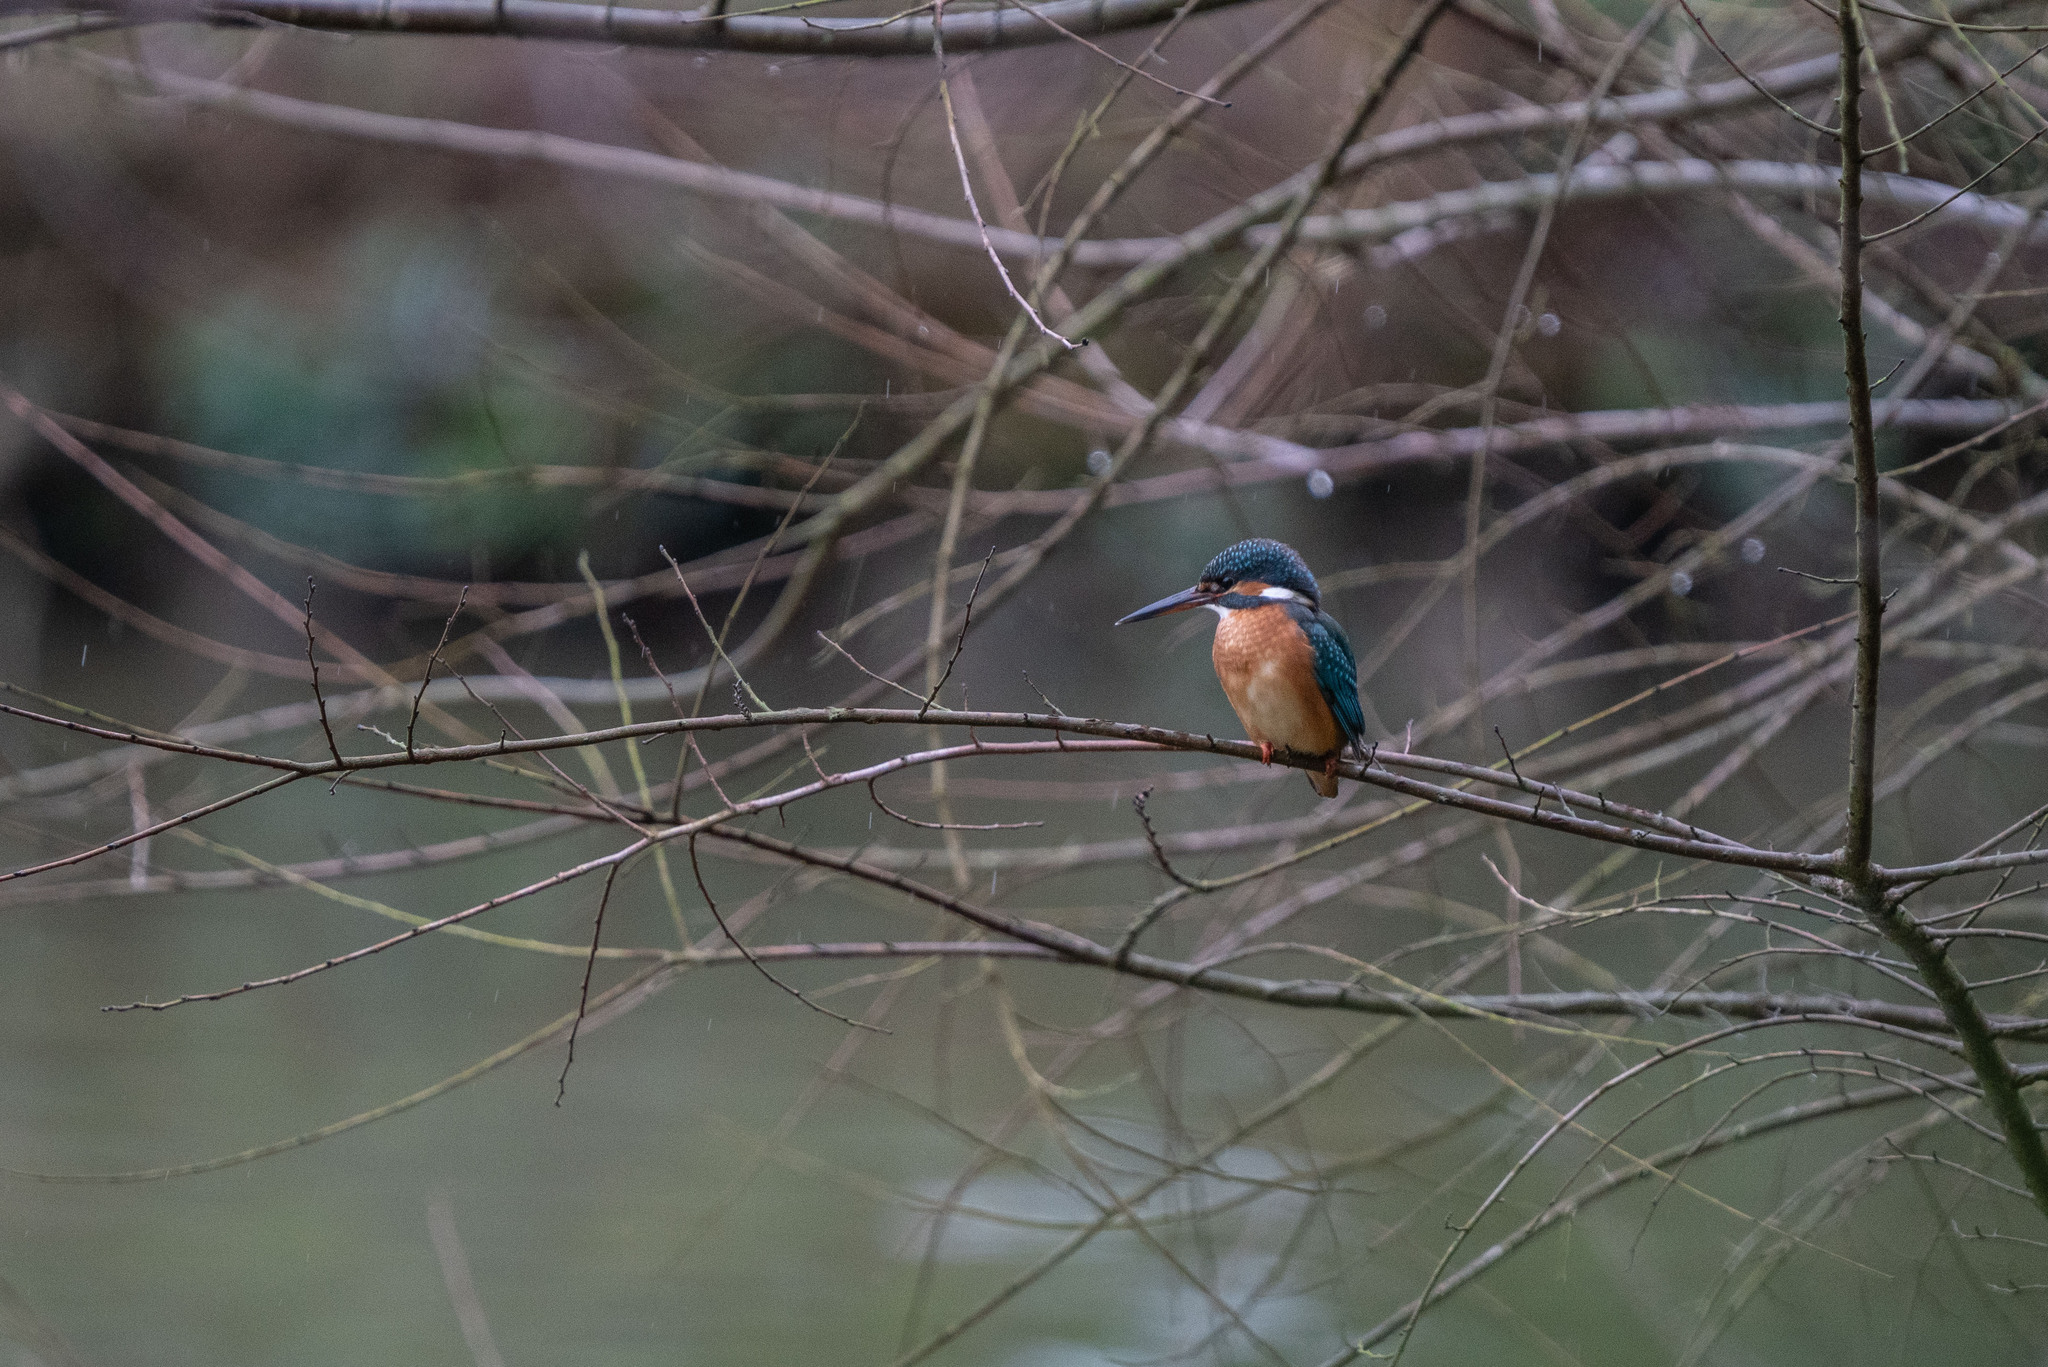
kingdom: Animalia
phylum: Chordata
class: Aves
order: Coraciiformes
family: Alcedinidae
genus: Alcedo
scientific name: Alcedo atthis
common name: Common kingfisher
